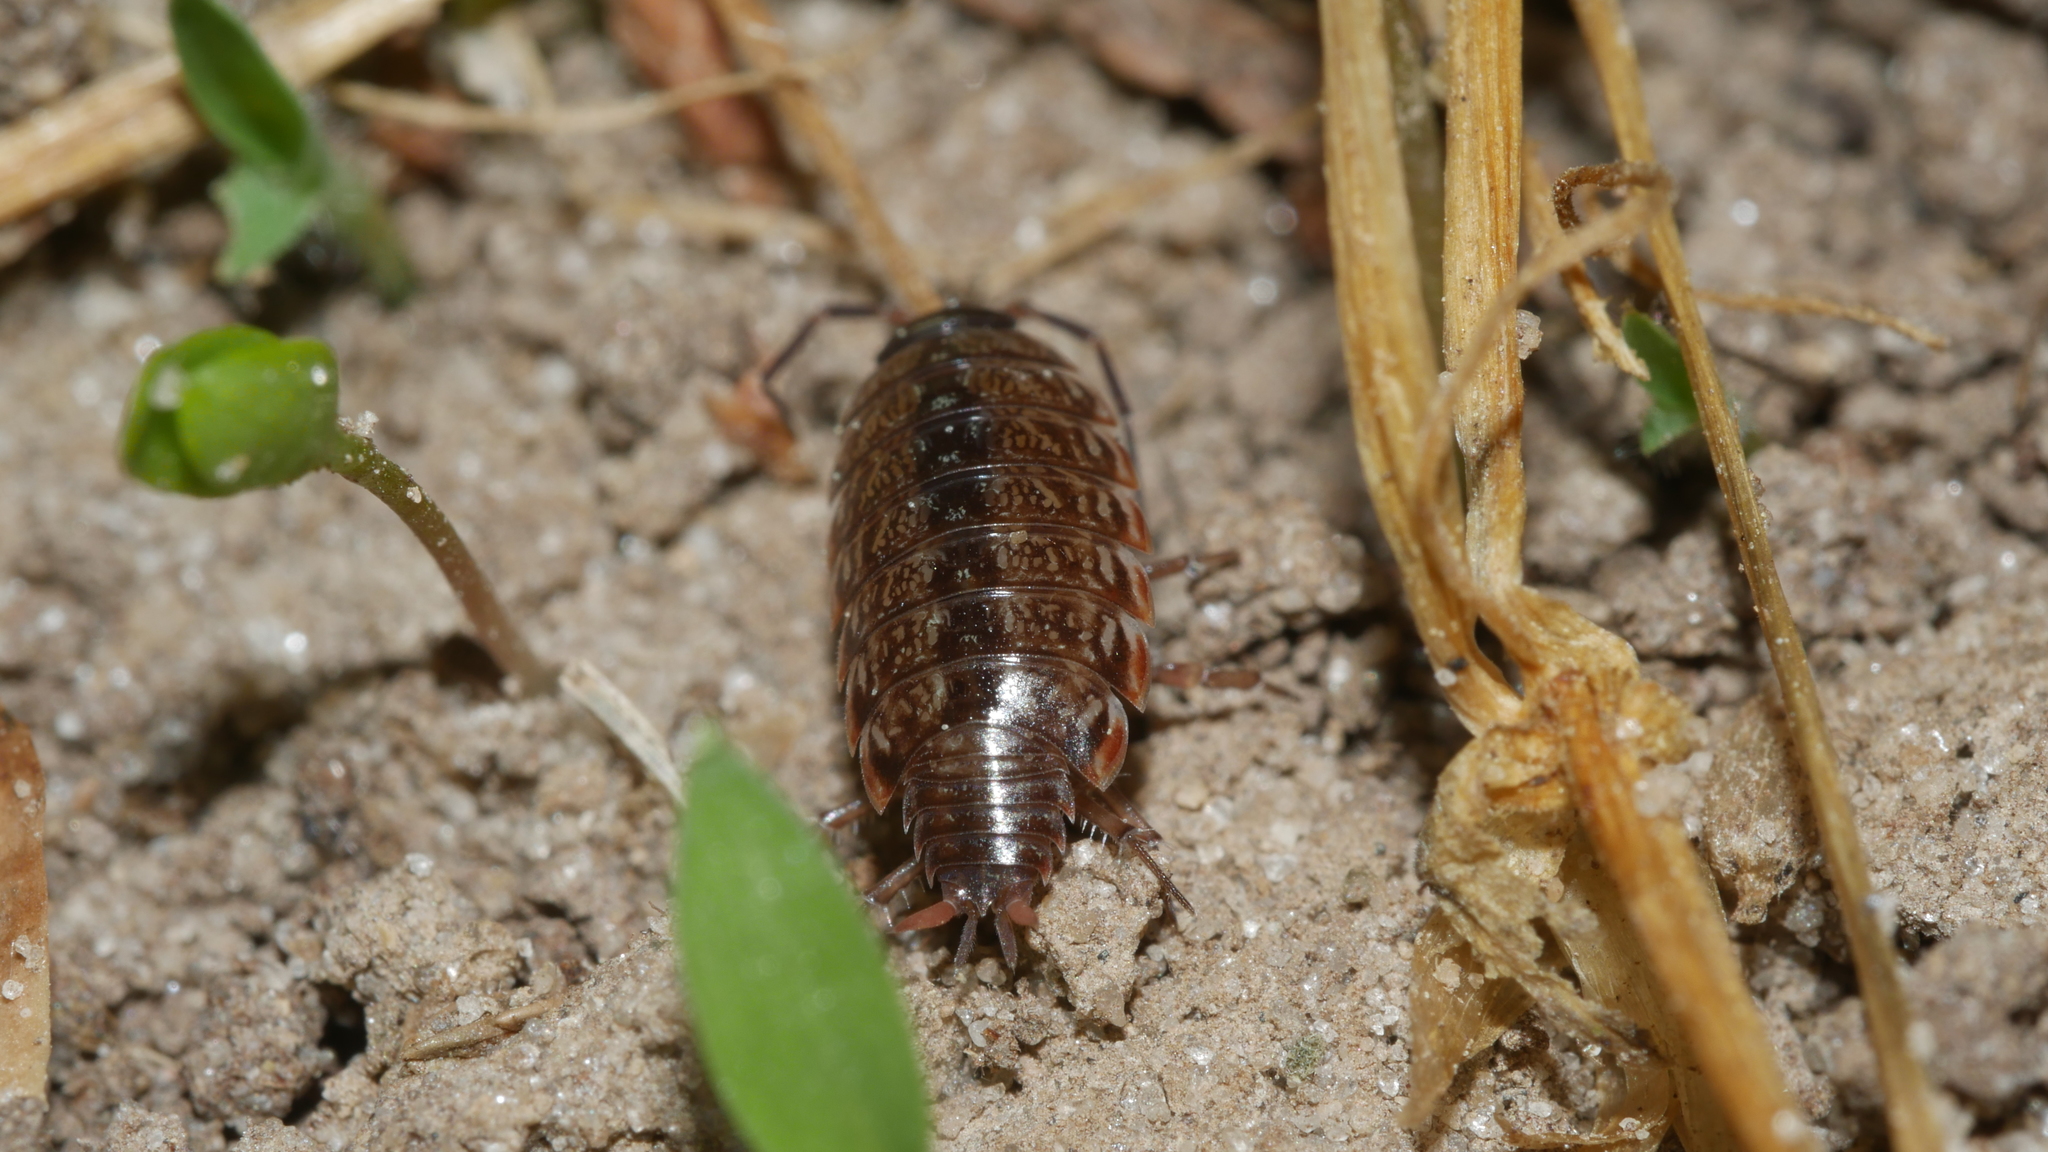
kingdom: Animalia
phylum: Arthropoda
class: Malacostraca
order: Isopoda
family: Philosciidae
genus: Philoscia
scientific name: Philoscia muscorum
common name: Common striped woodlouse
